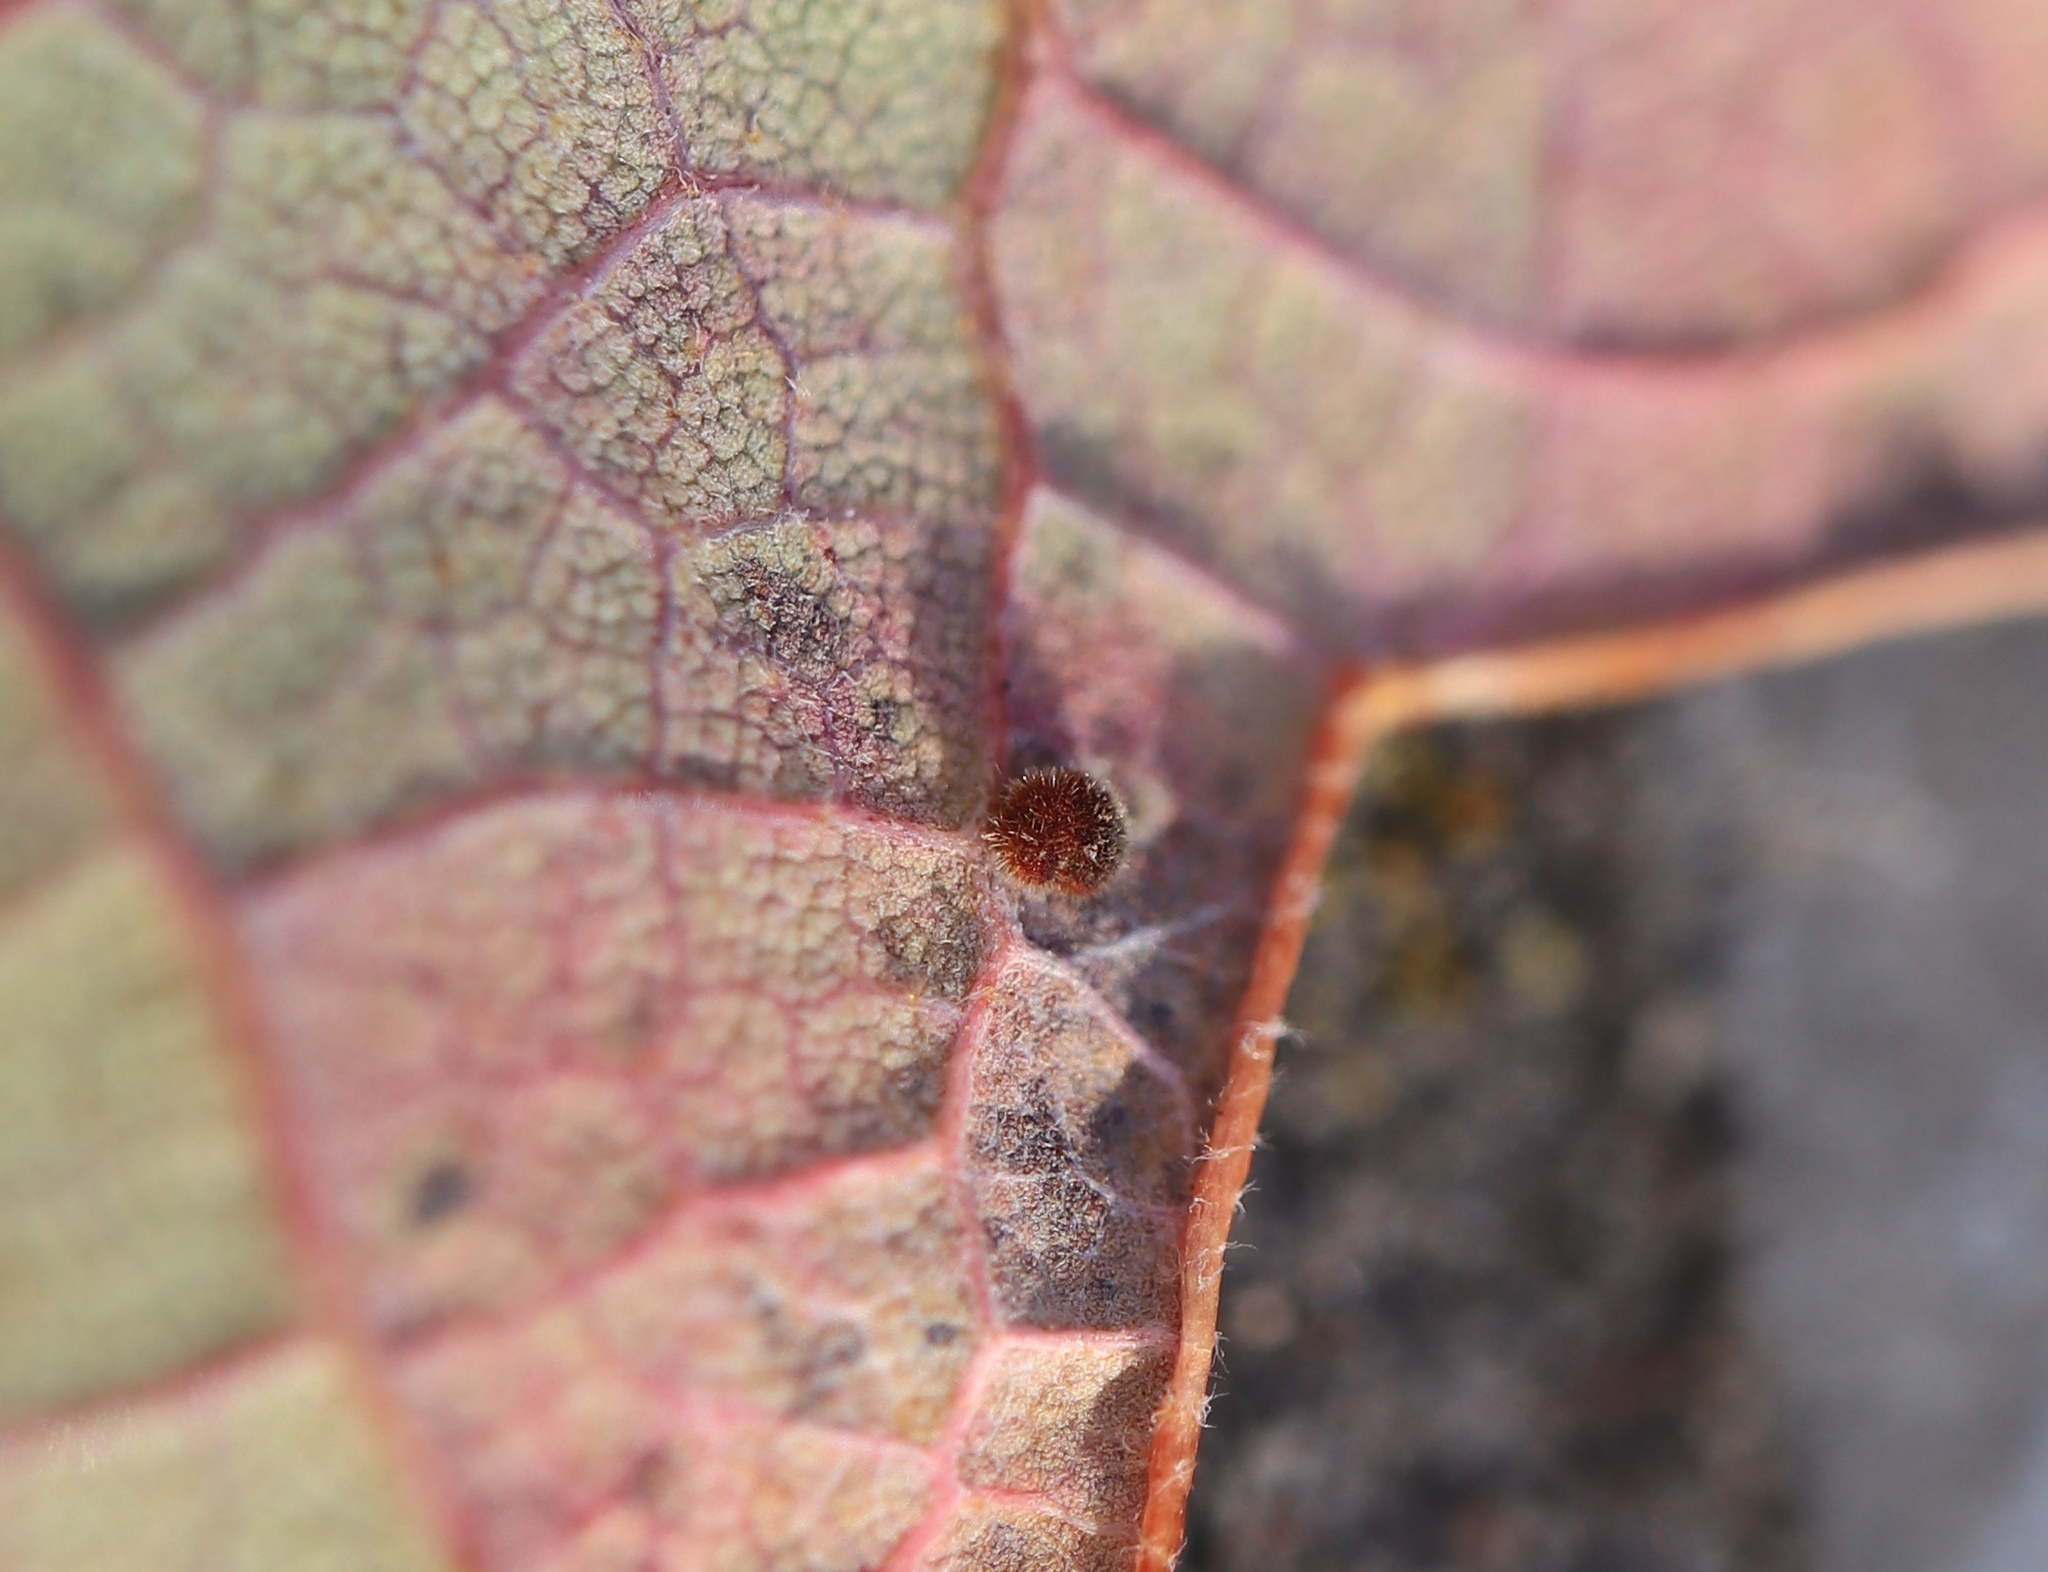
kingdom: Animalia
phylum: Arthropoda
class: Insecta
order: Hymenoptera
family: Cynipidae
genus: Neuroterus
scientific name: Neuroterus saltarius
